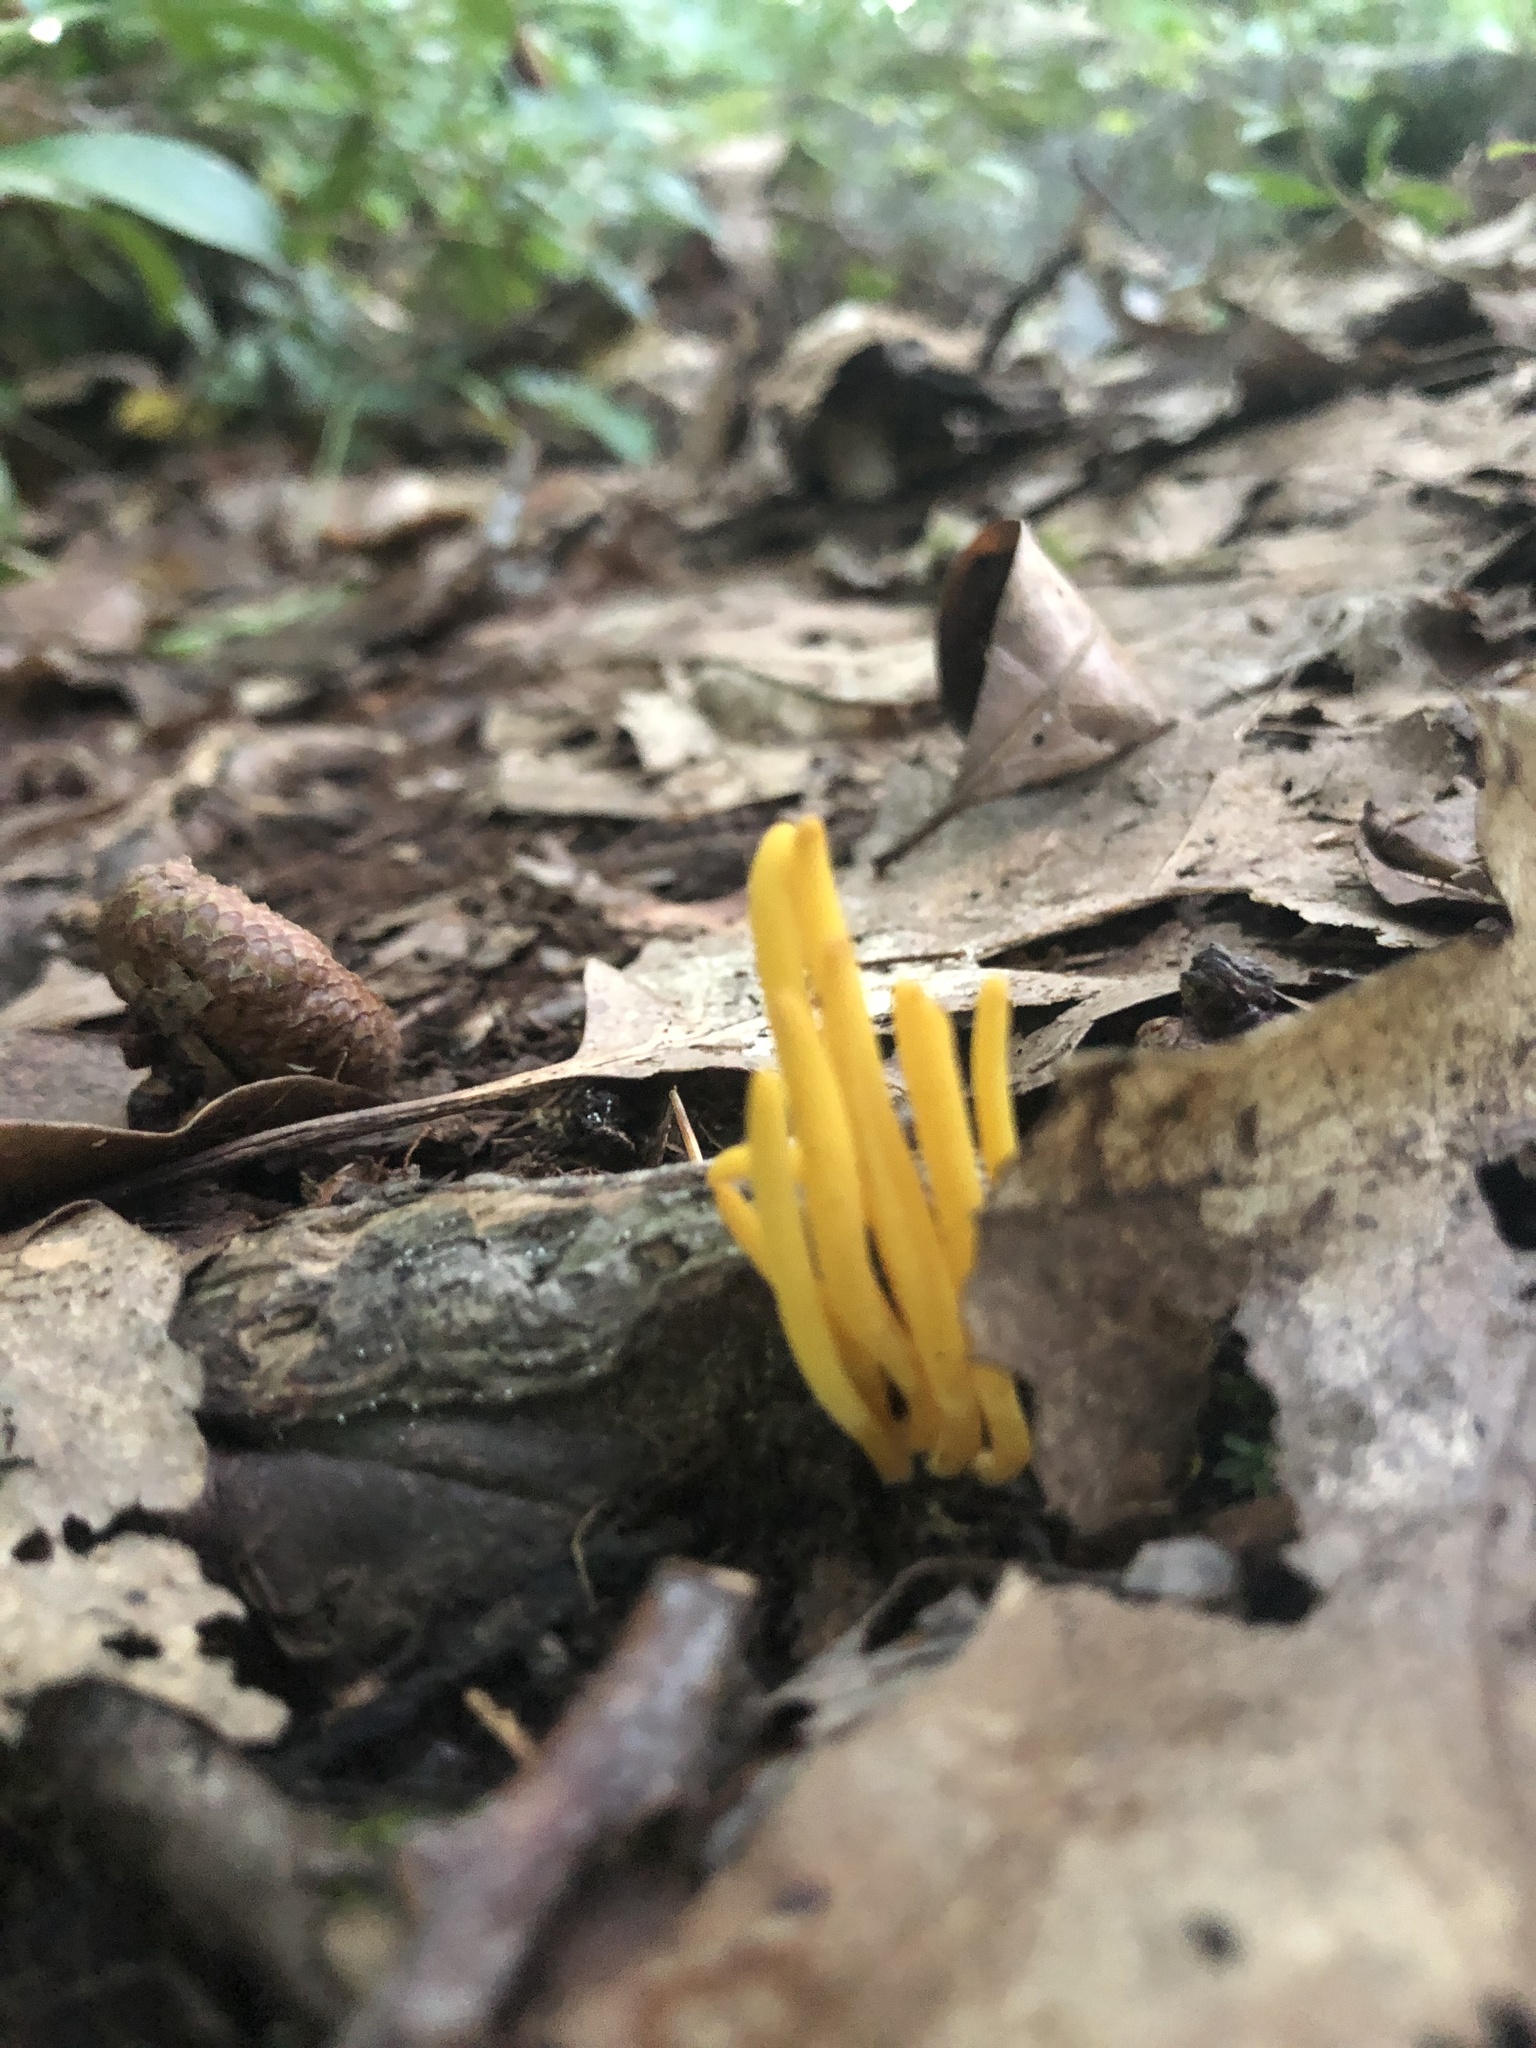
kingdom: Fungi
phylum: Basidiomycota
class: Agaricomycetes
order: Agaricales
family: Clavariaceae
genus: Clavulinopsis
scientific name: Clavulinopsis fusiformis
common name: Golden spindles
